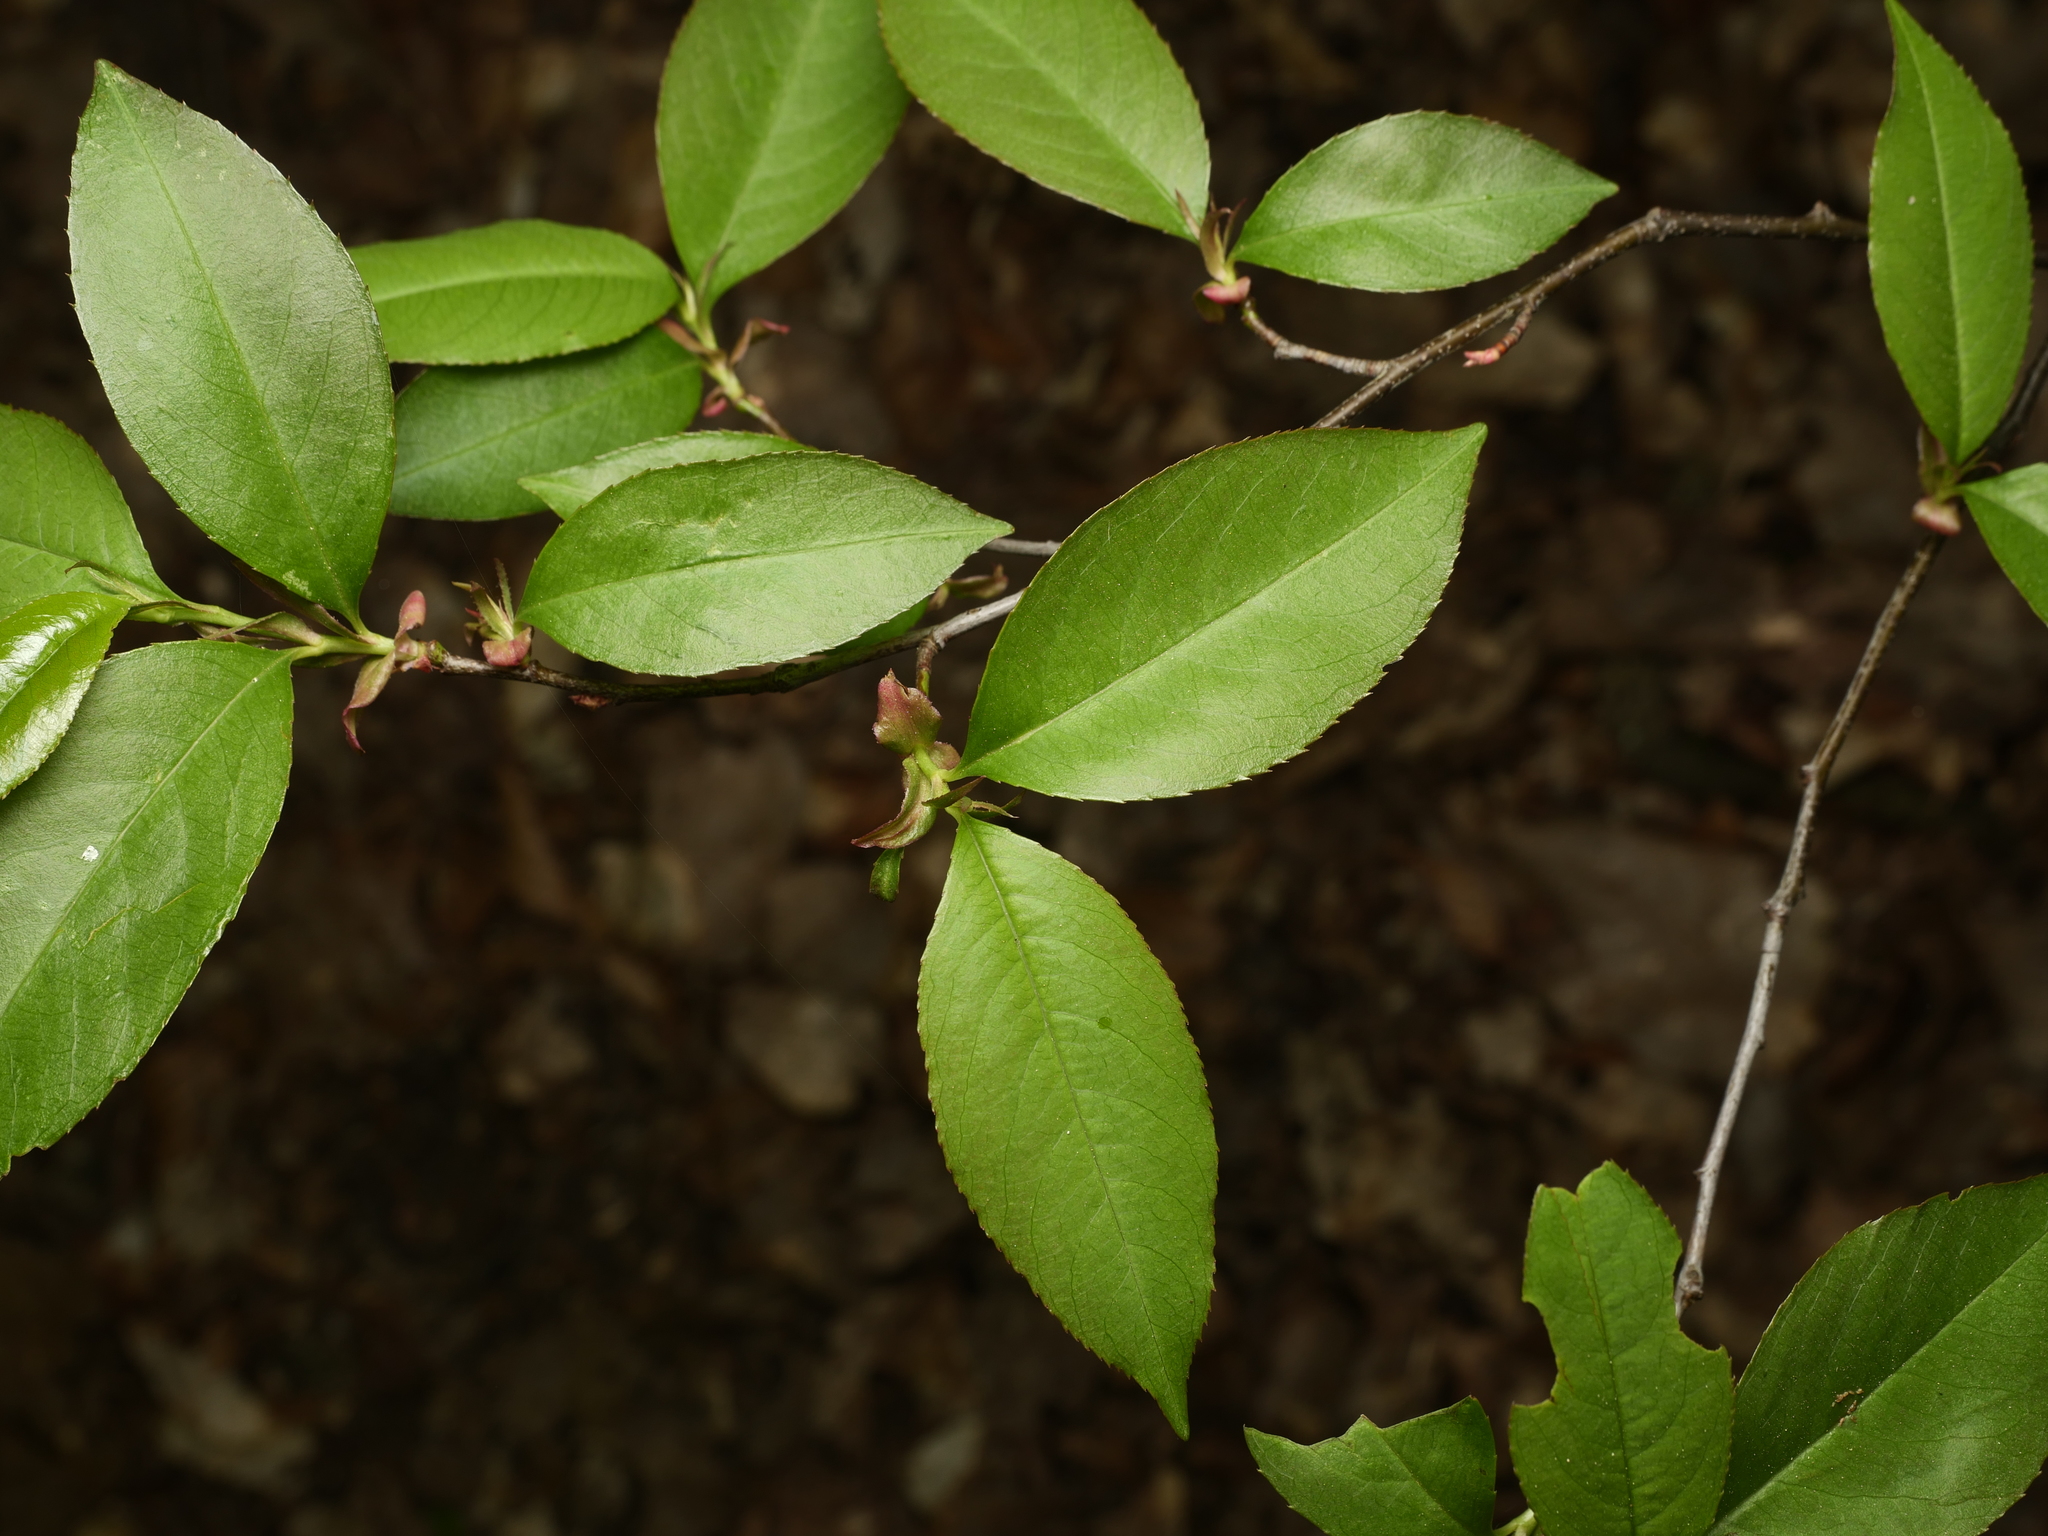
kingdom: Plantae
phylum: Tracheophyta
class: Magnoliopsida
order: Rosales
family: Rosaceae
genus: Prunus
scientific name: Prunus serotina
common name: Black cherry
